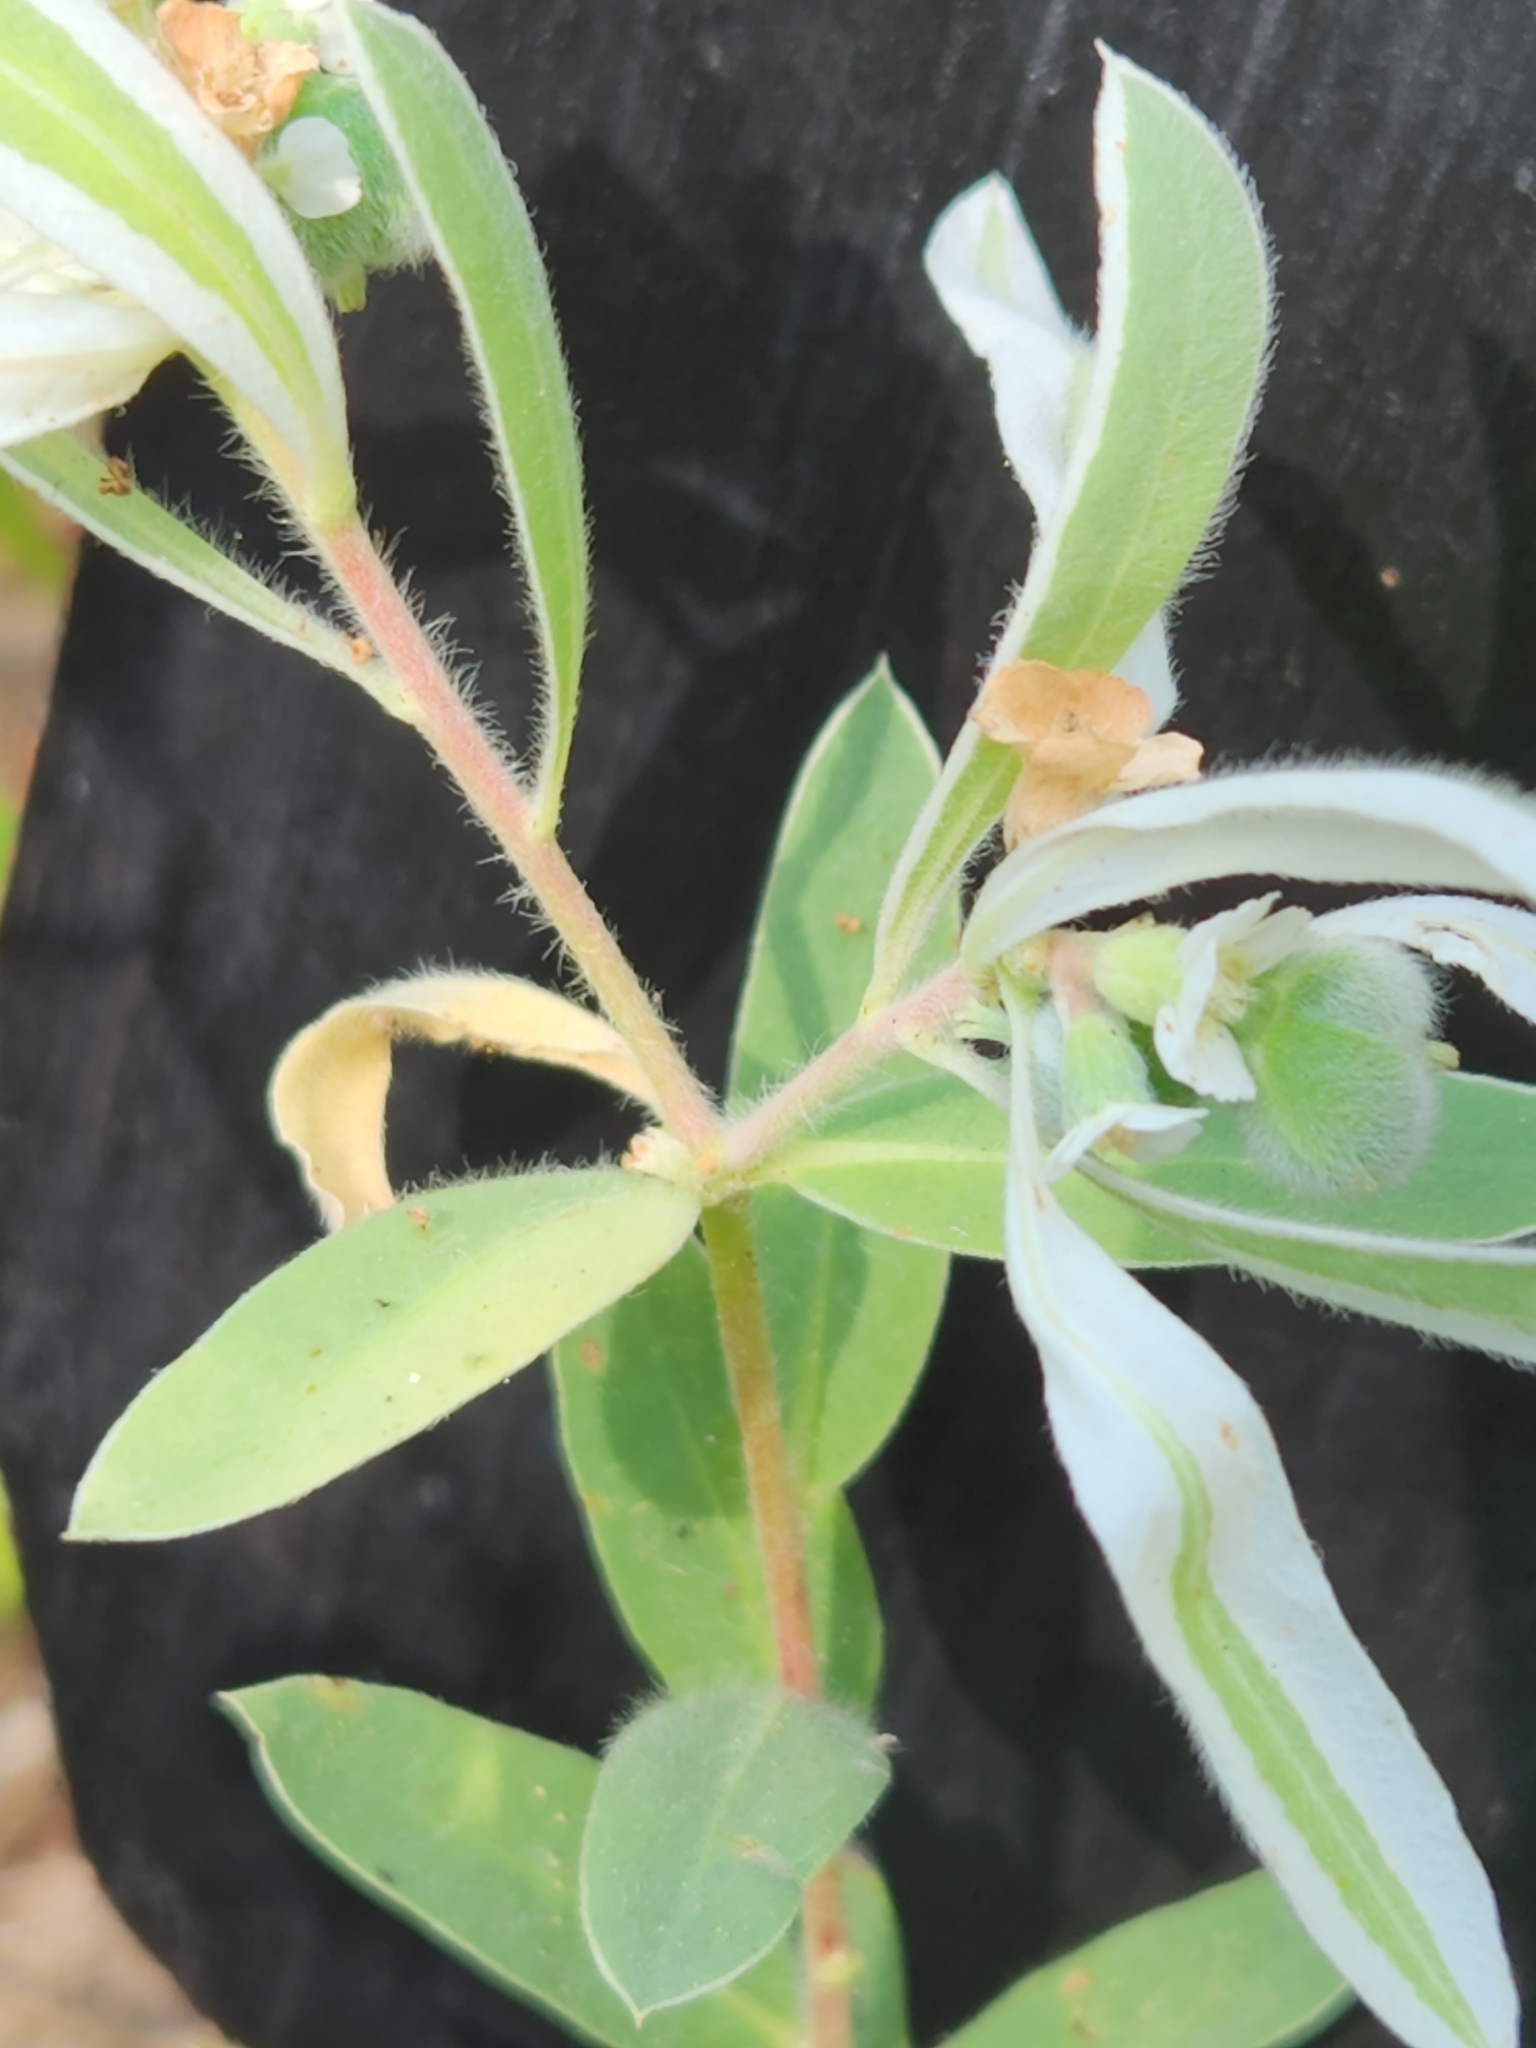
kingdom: Plantae
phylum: Tracheophyta
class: Magnoliopsida
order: Malpighiales
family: Euphorbiaceae
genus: Euphorbia
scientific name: Euphorbia bicolor
